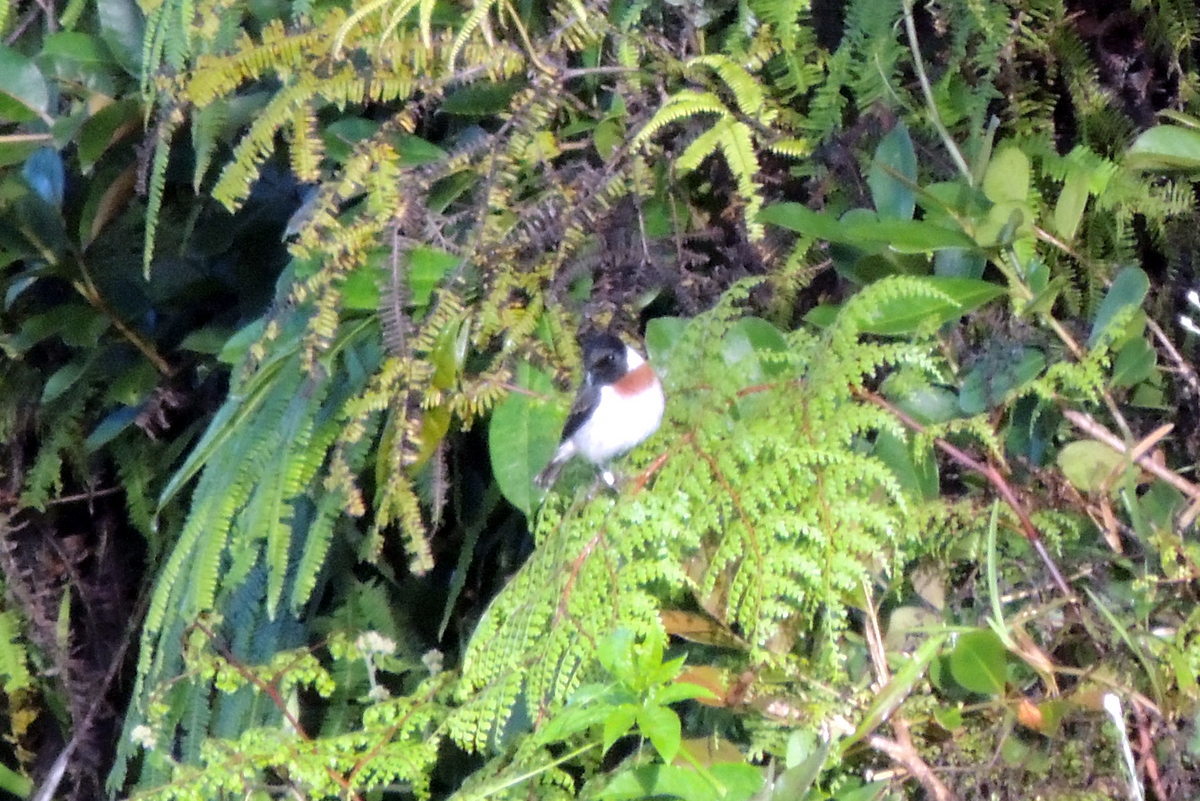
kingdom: Animalia
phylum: Chordata
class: Aves
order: Passeriformes
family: Muscicapidae
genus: Saxicola
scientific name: Saxicola torquatus
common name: African stonechat
